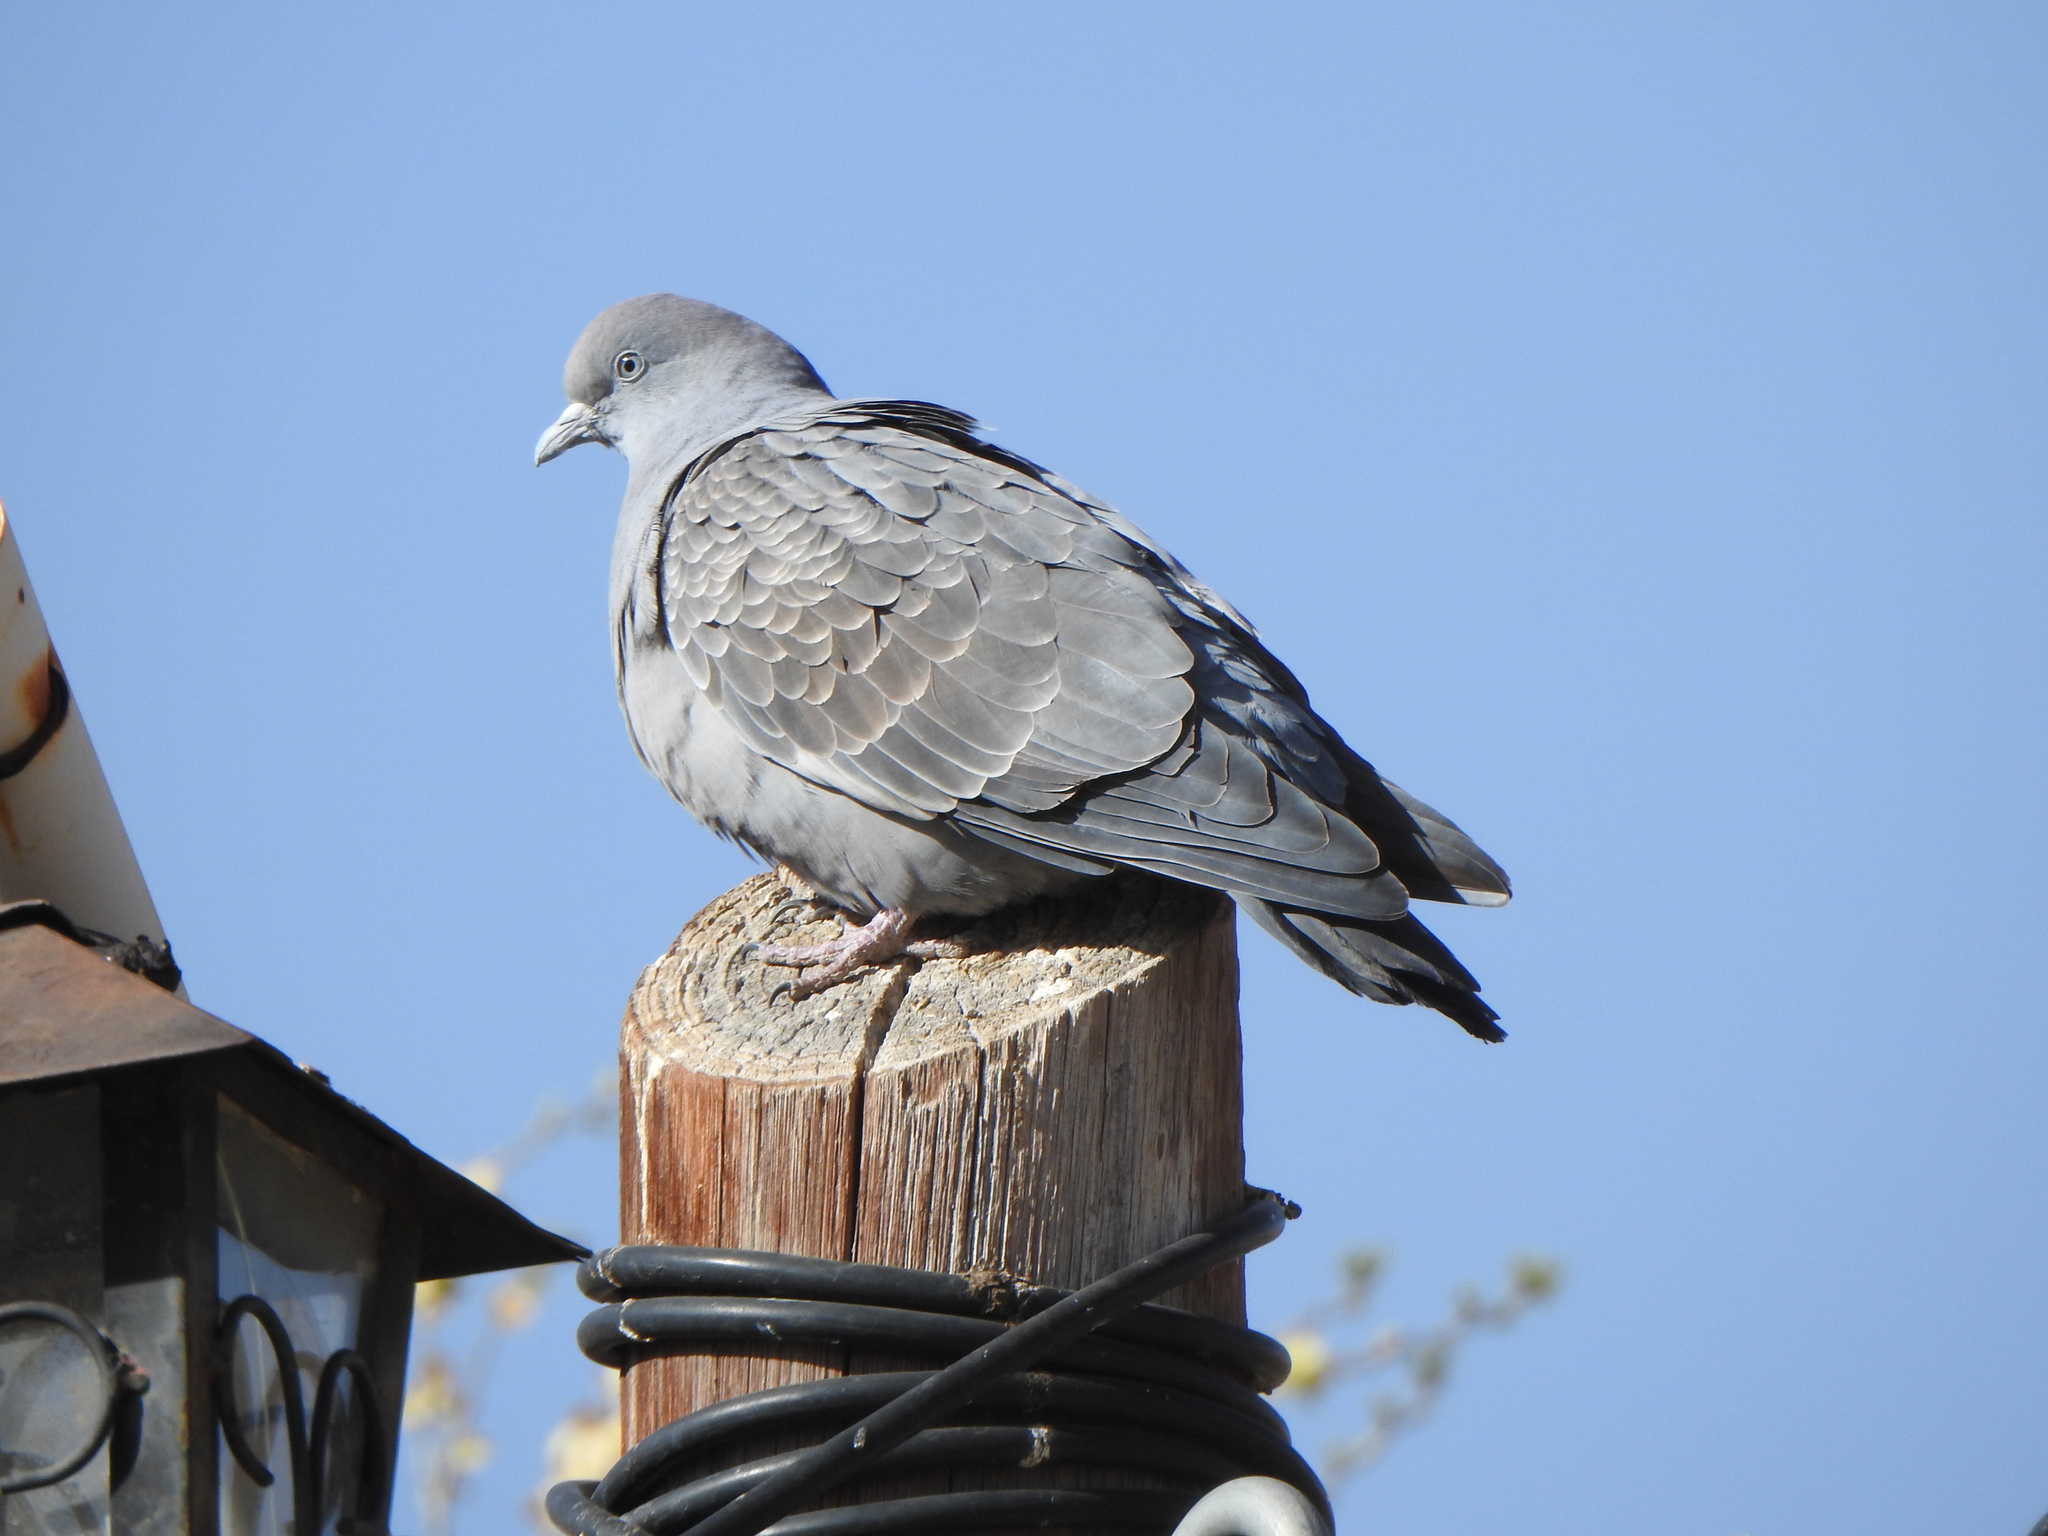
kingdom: Animalia
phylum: Chordata
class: Aves
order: Columbiformes
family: Columbidae
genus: Patagioenas
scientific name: Patagioenas maculosa
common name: Spot-winged pigeon
